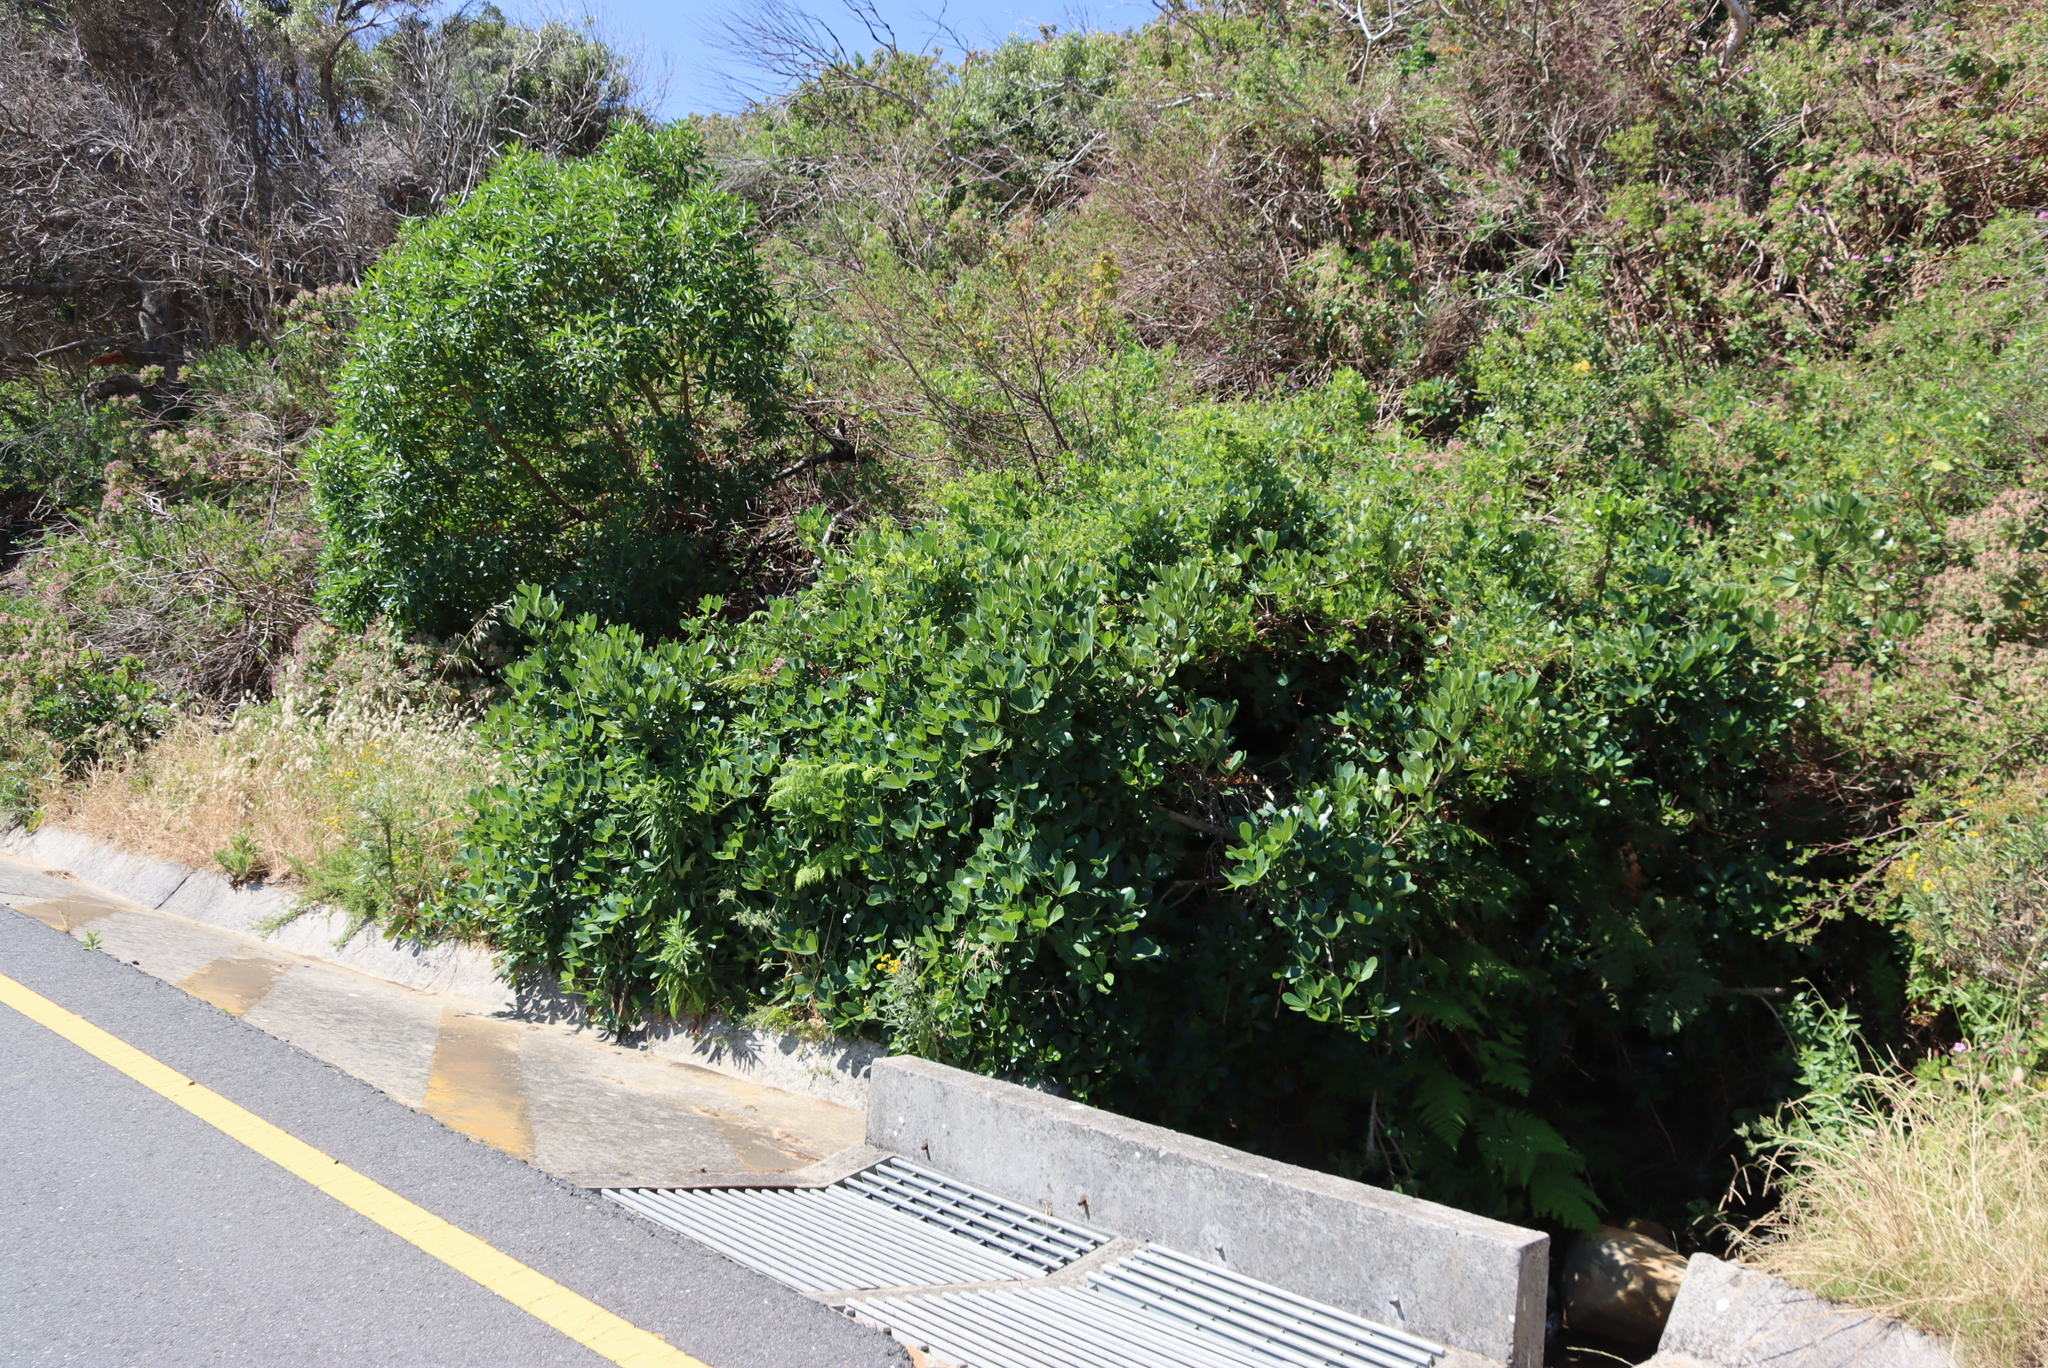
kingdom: Plantae
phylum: Tracheophyta
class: Magnoliopsida
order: Apiales
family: Araliaceae
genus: Cussonia
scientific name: Cussonia thyrsiflora
